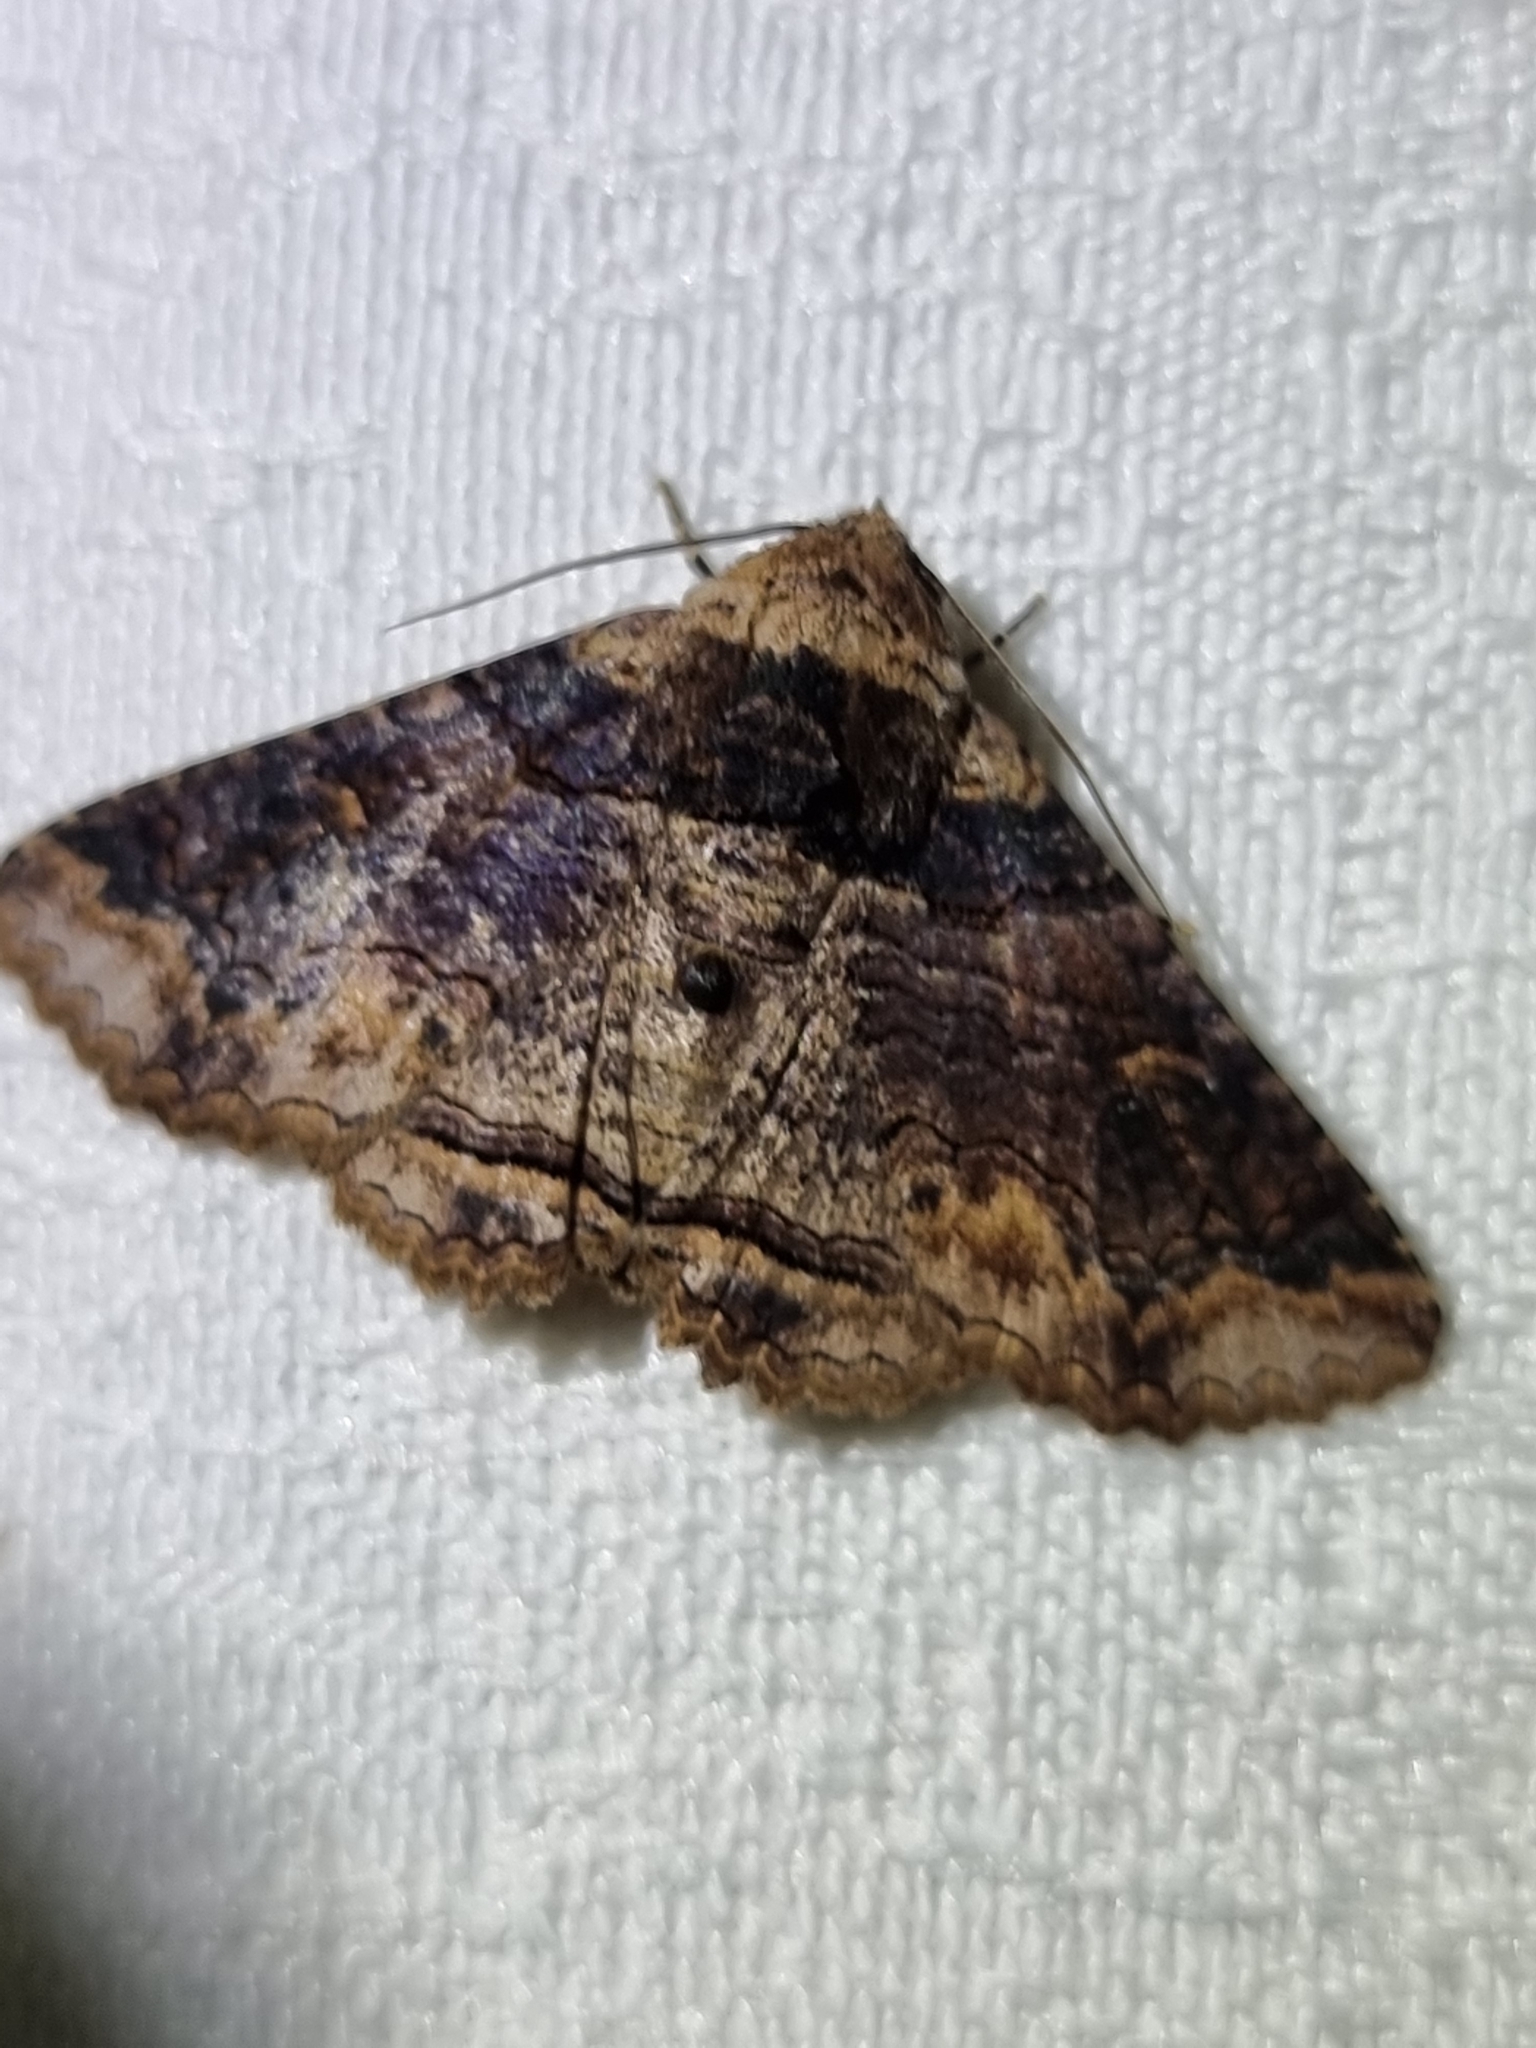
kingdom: Animalia
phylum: Arthropoda
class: Insecta
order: Lepidoptera
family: Erebidae
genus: Pericyma
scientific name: Pericyma cruegeri
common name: Poinciana looper
